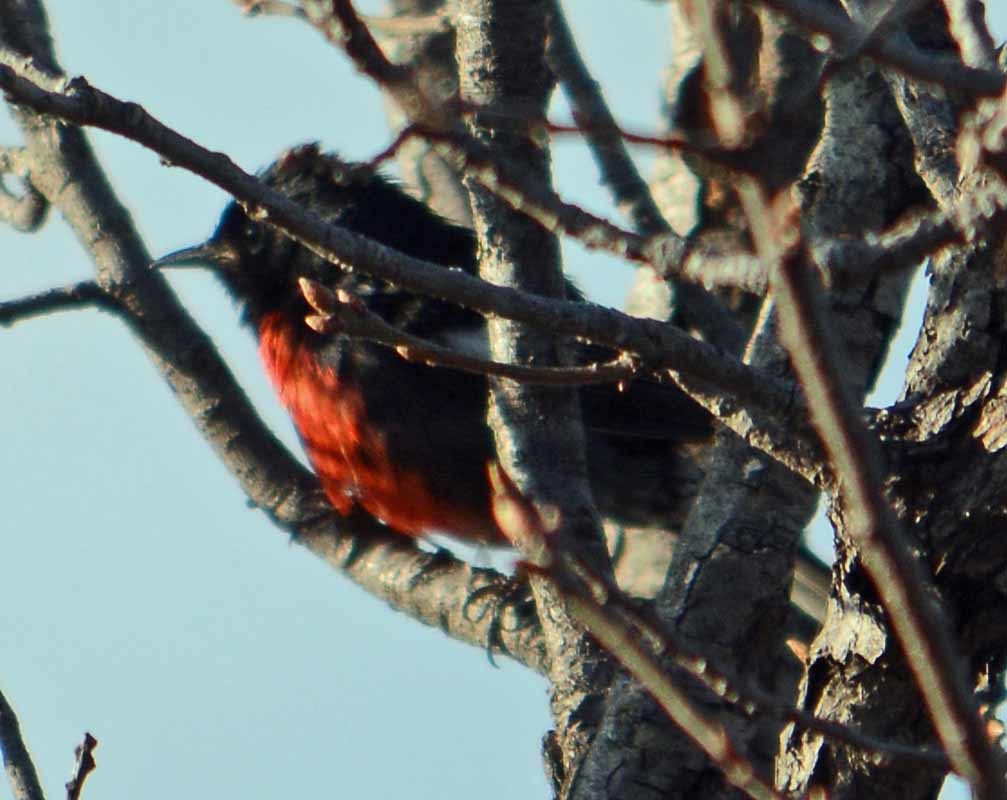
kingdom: Animalia
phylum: Chordata
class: Aves
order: Passeriformes
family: Parulidae
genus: Myioborus
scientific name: Myioborus pictus
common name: Painted whitestart
